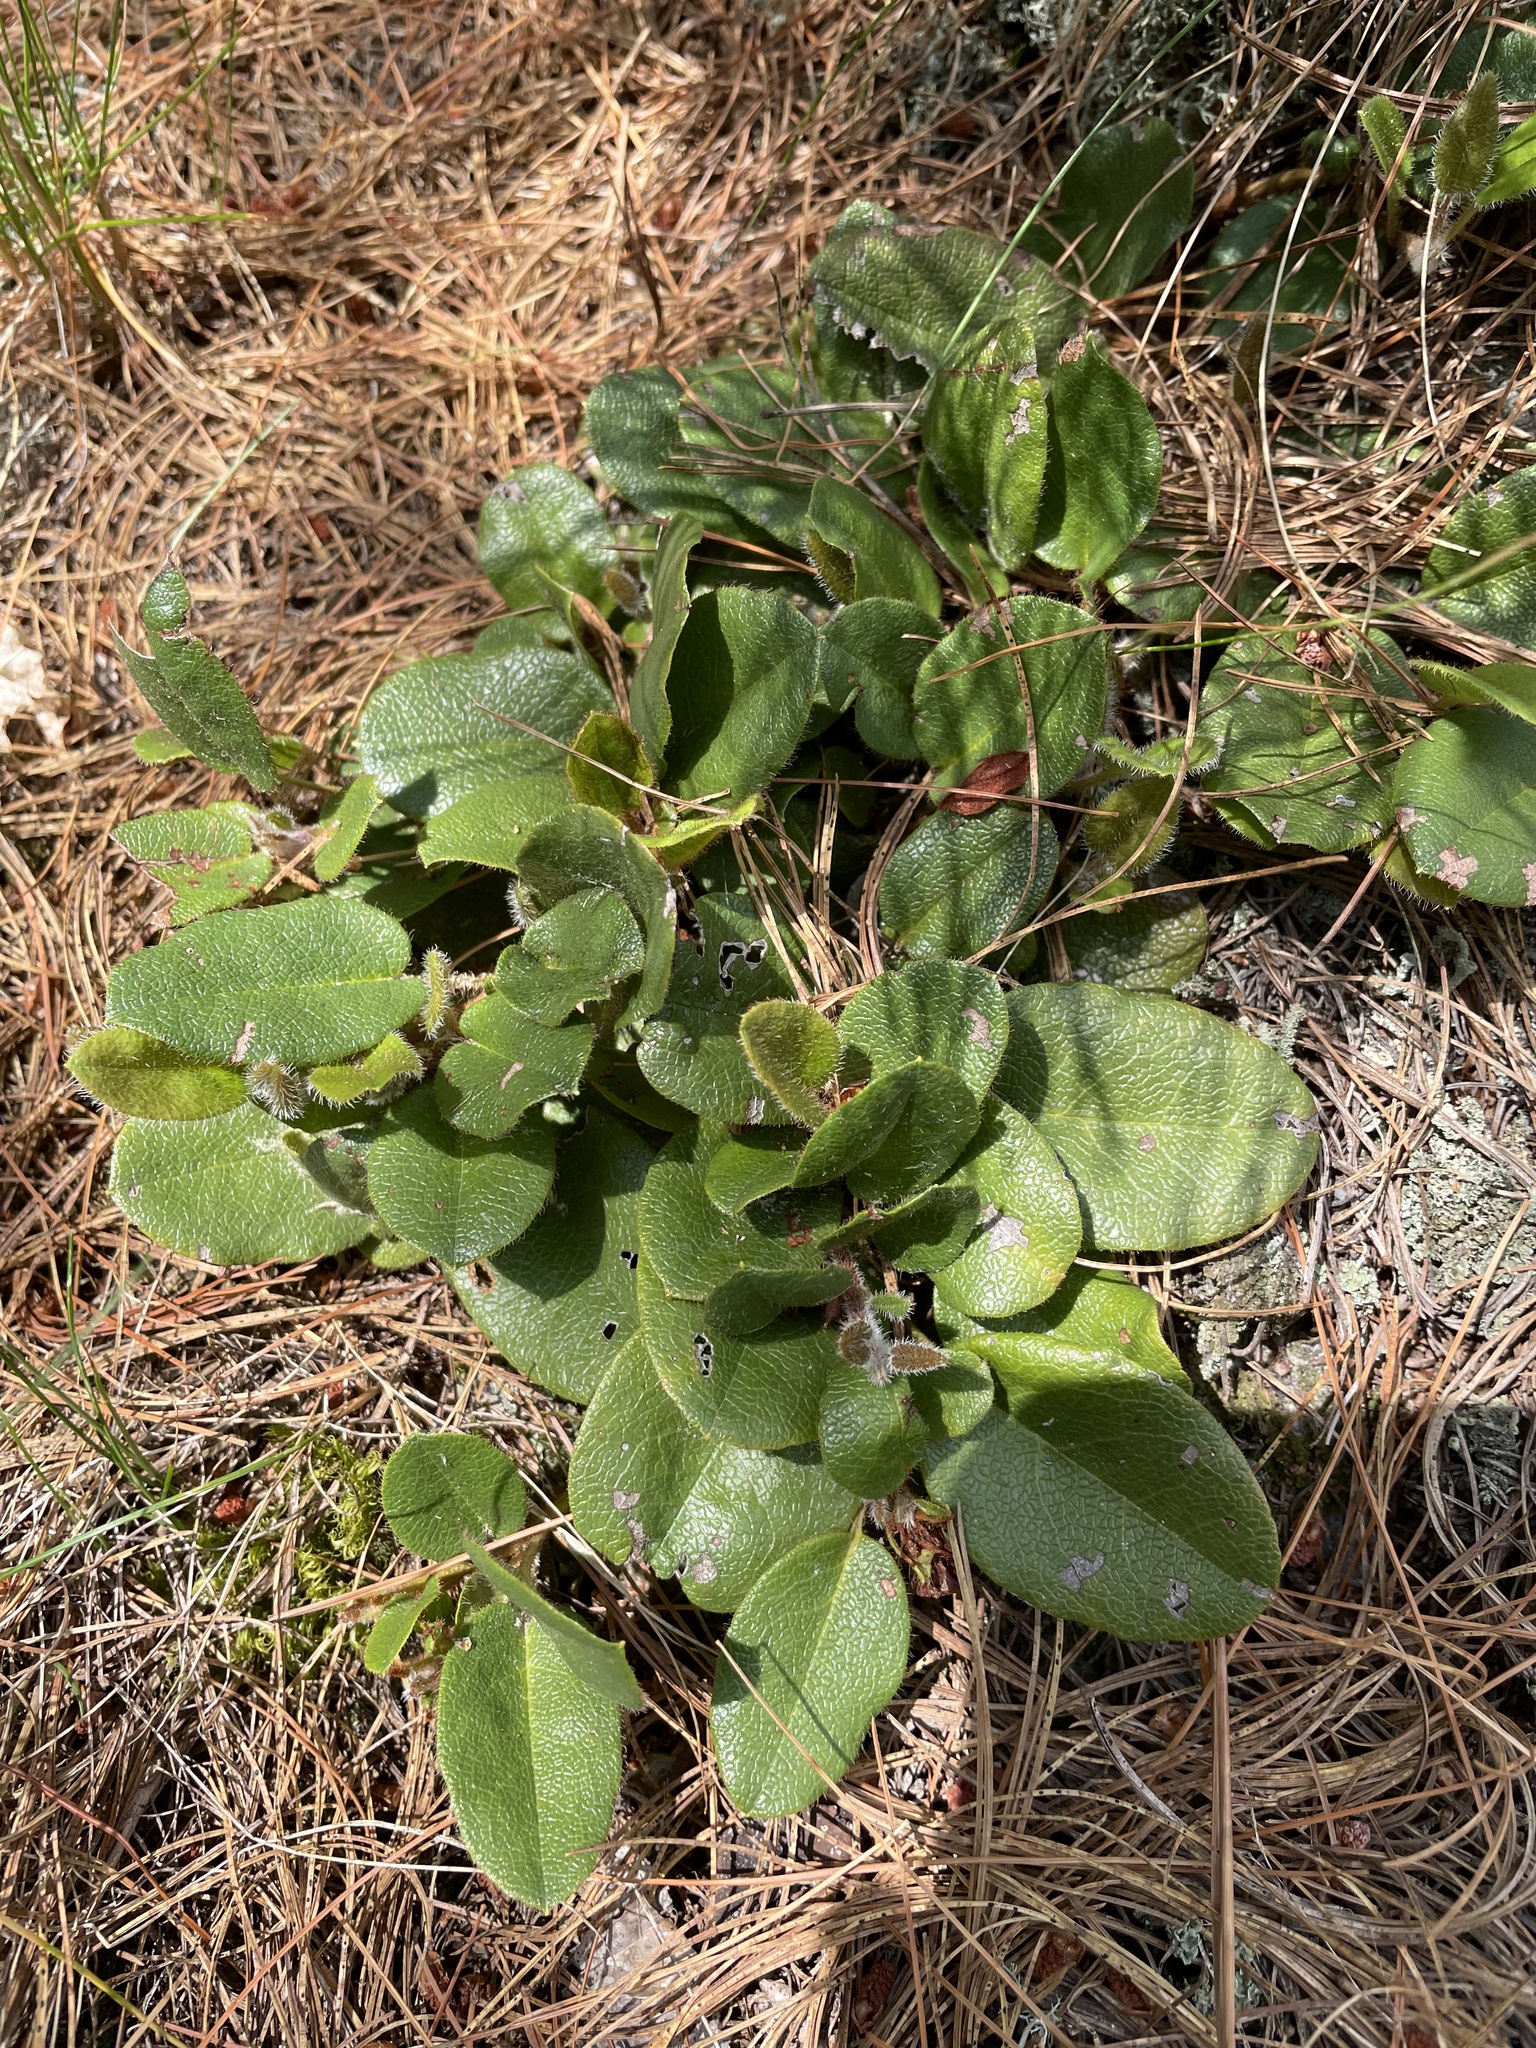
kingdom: Plantae
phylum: Tracheophyta
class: Magnoliopsida
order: Ericales
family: Ericaceae
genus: Epigaea
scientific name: Epigaea repens
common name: Gravelroot
